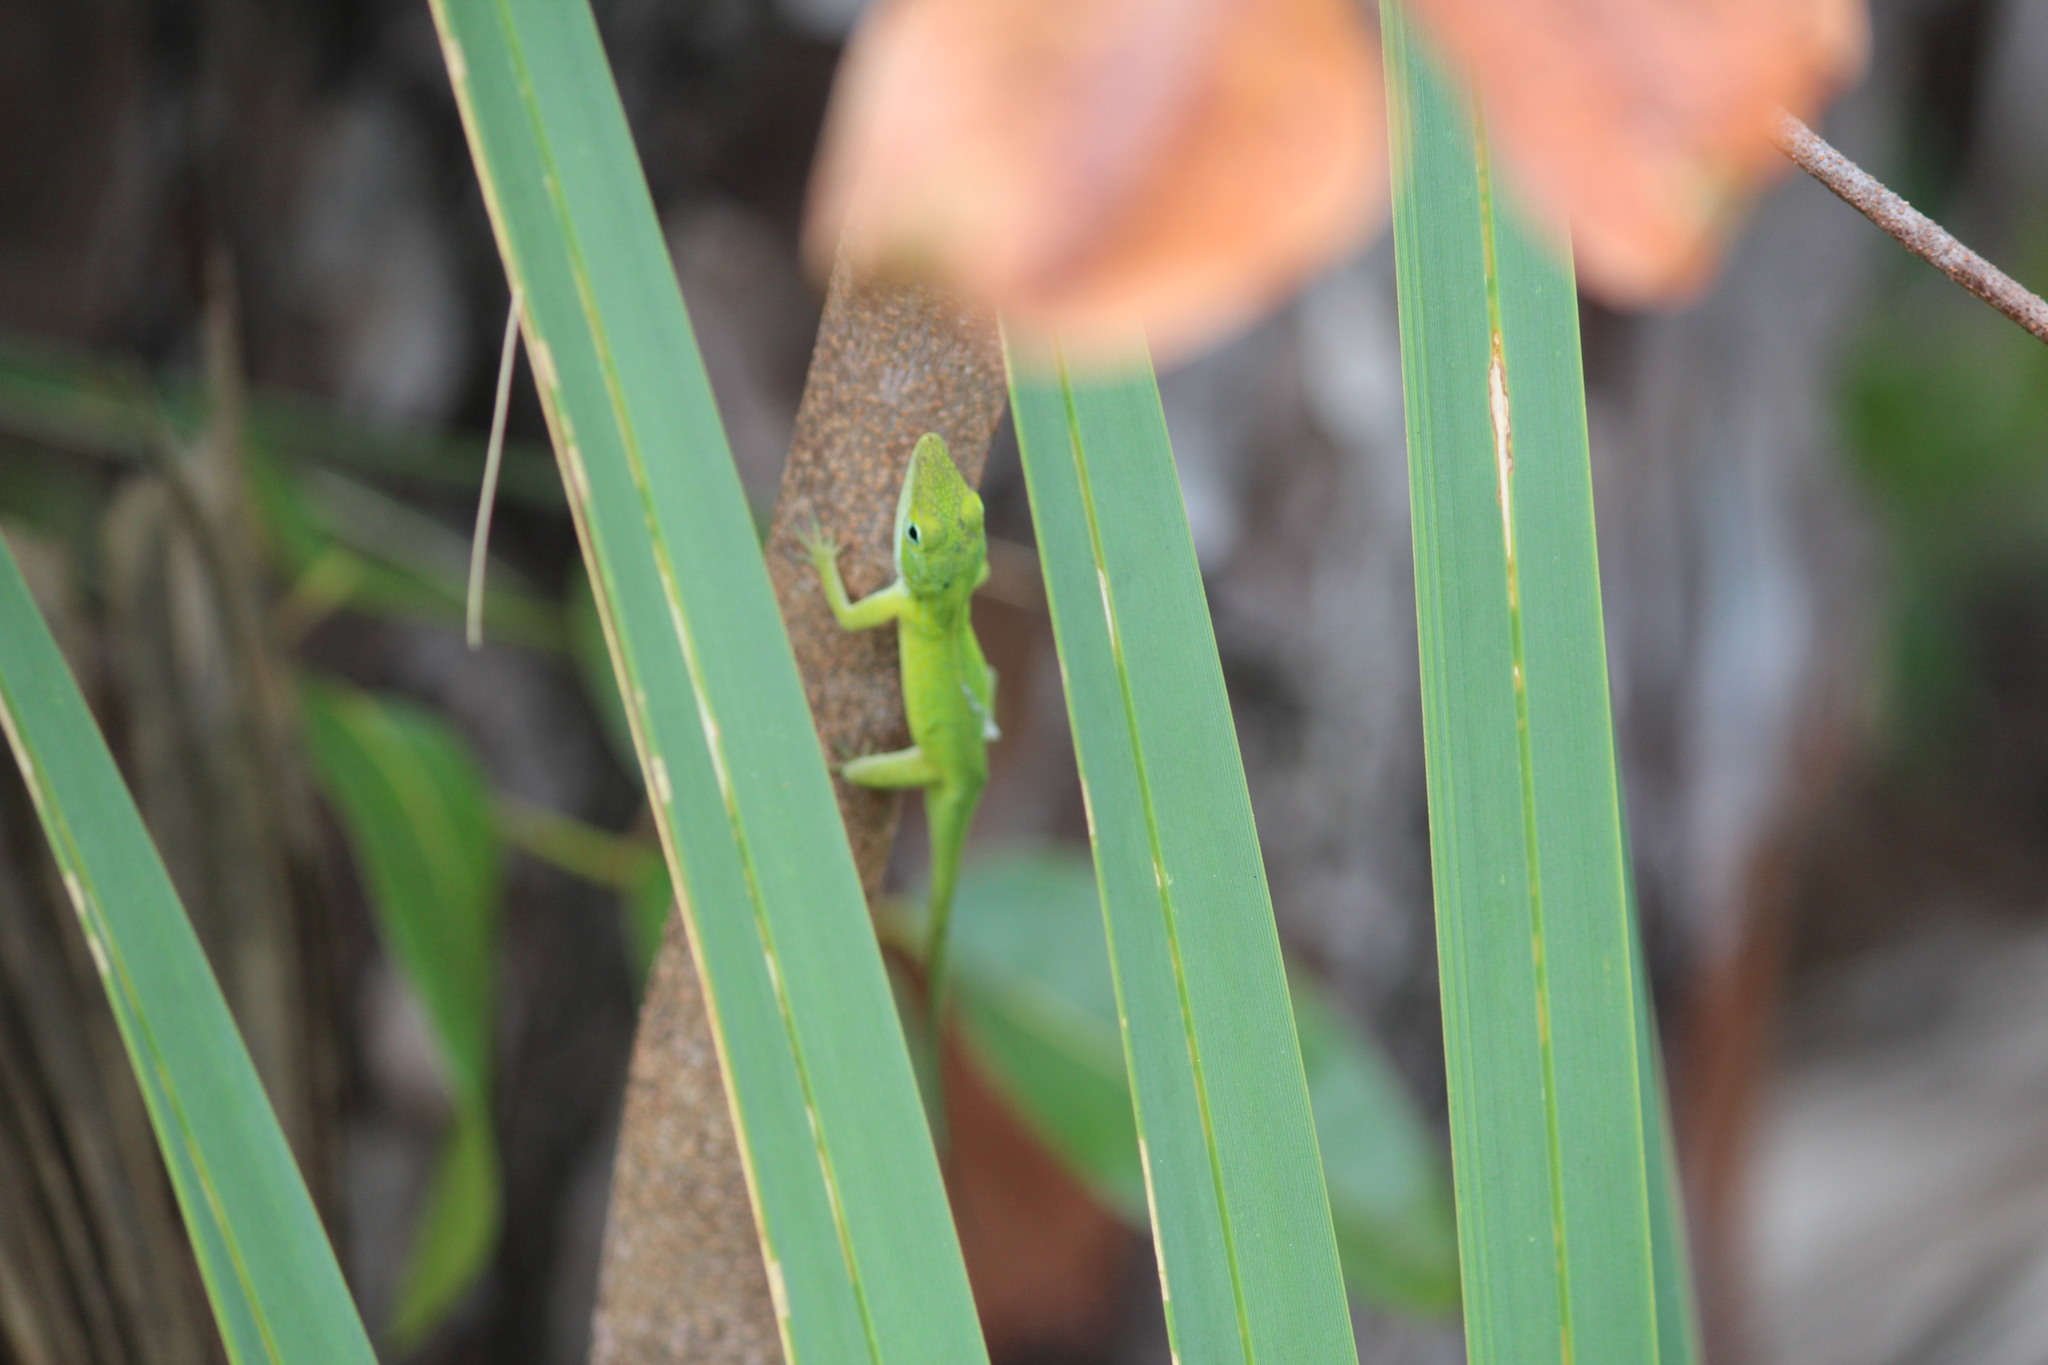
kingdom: Animalia
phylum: Chordata
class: Squamata
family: Dactyloidae
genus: Anolis
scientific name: Anolis carolinensis
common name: Green anole
